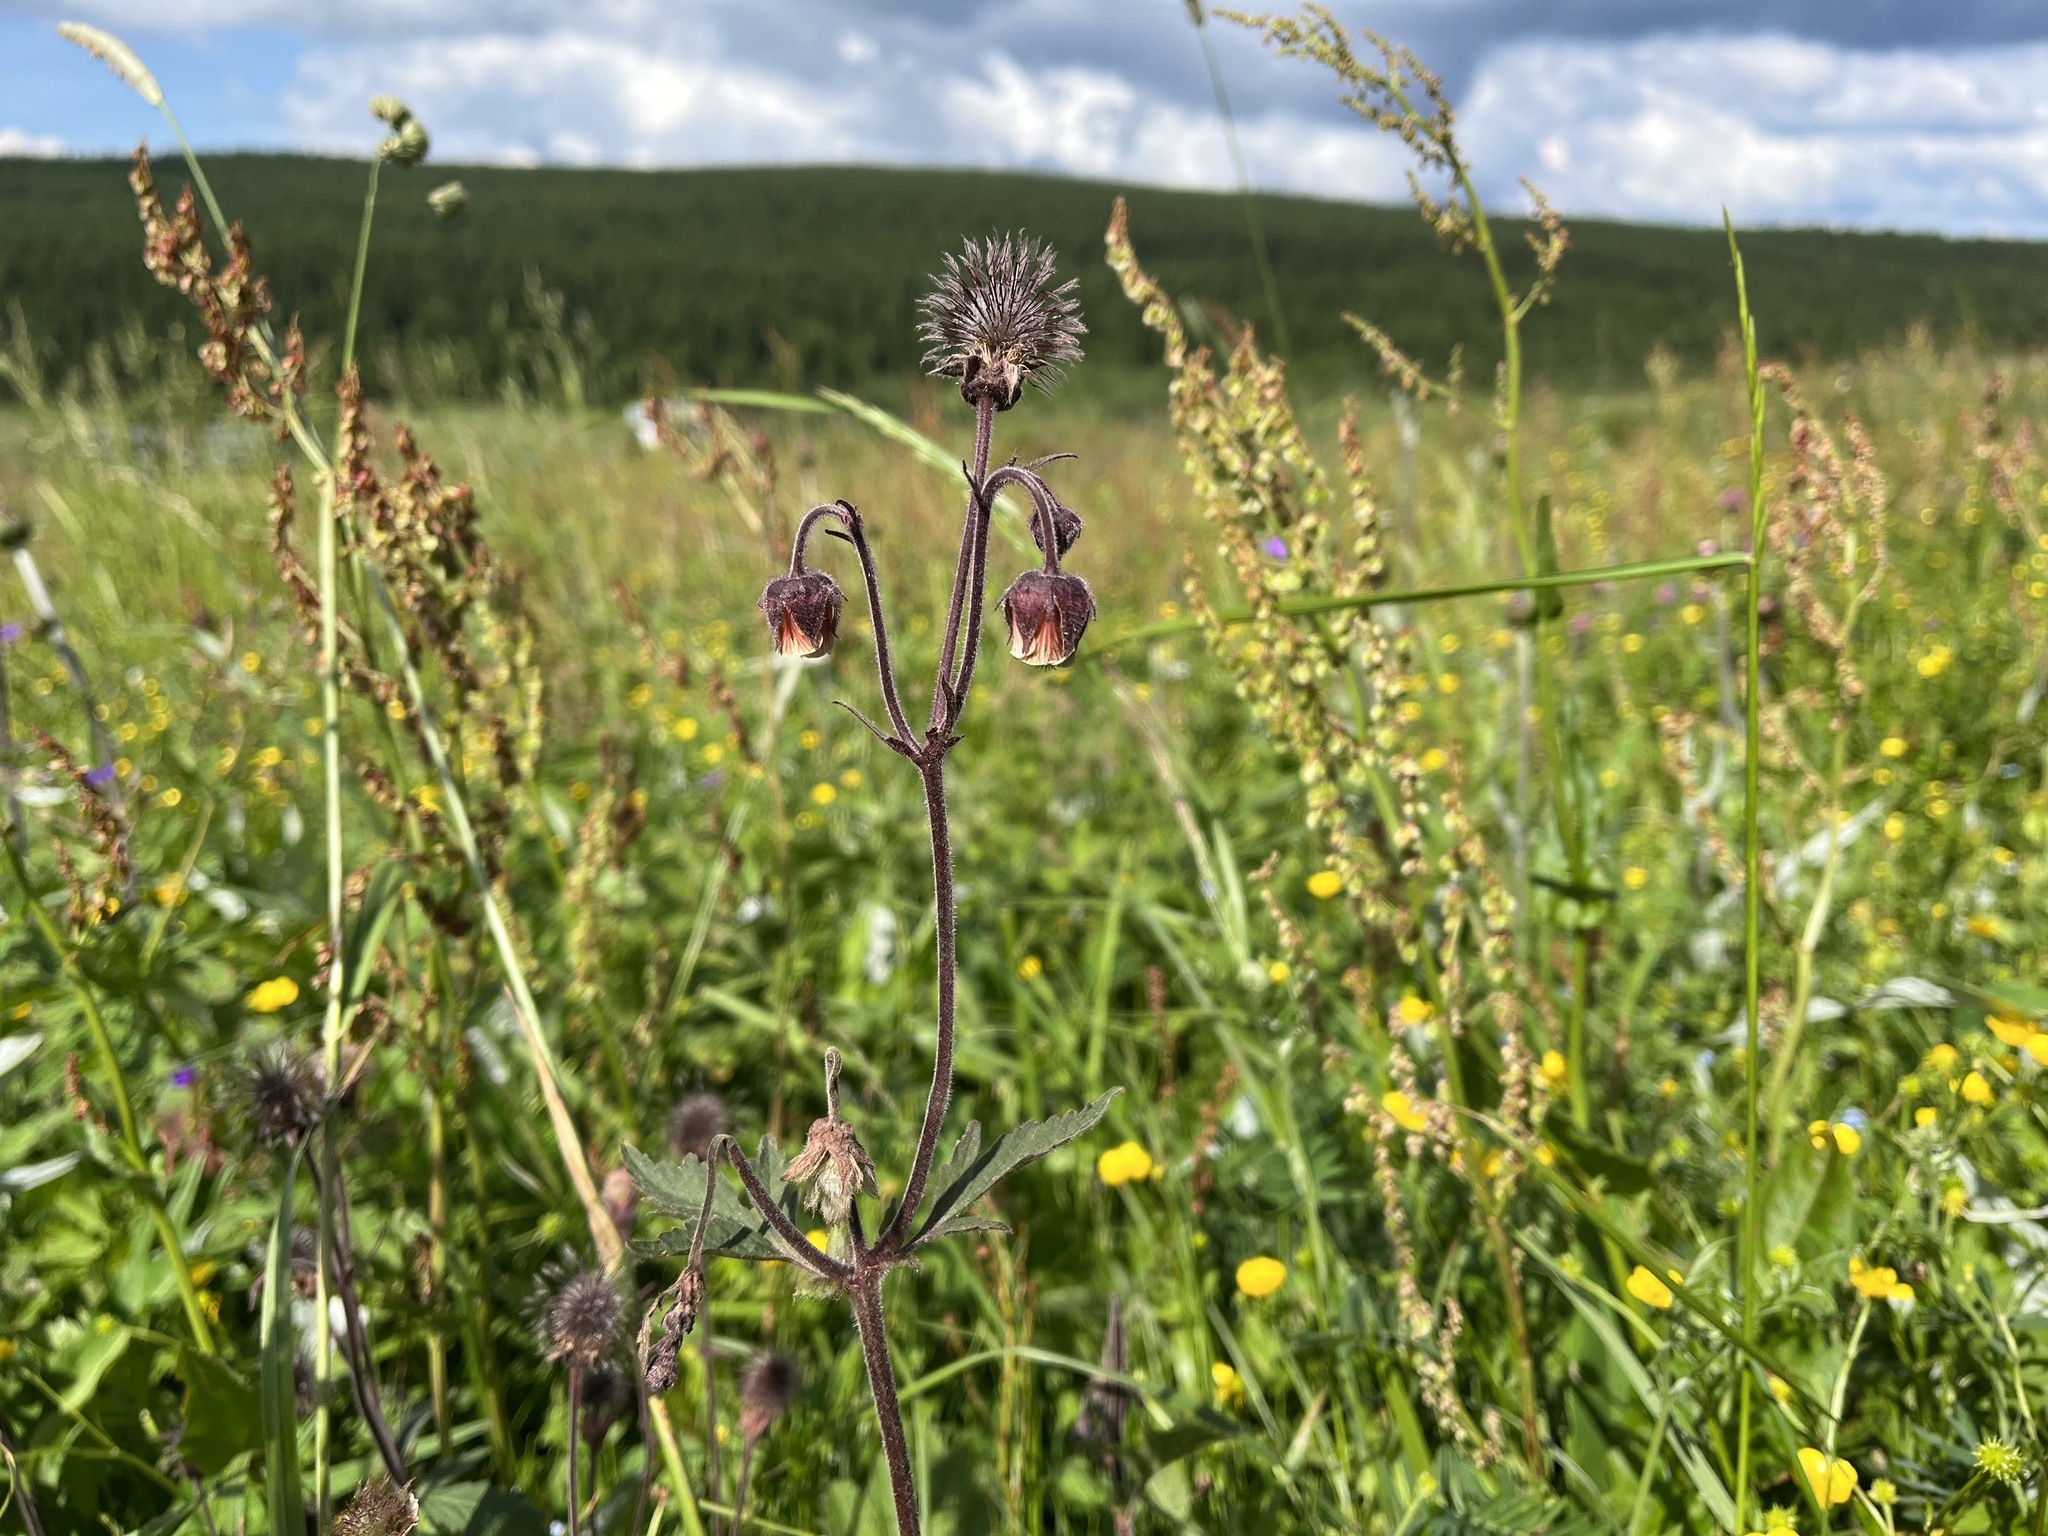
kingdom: Plantae
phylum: Tracheophyta
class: Magnoliopsida
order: Rosales
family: Rosaceae
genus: Geum
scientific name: Geum rivale
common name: Water avens
